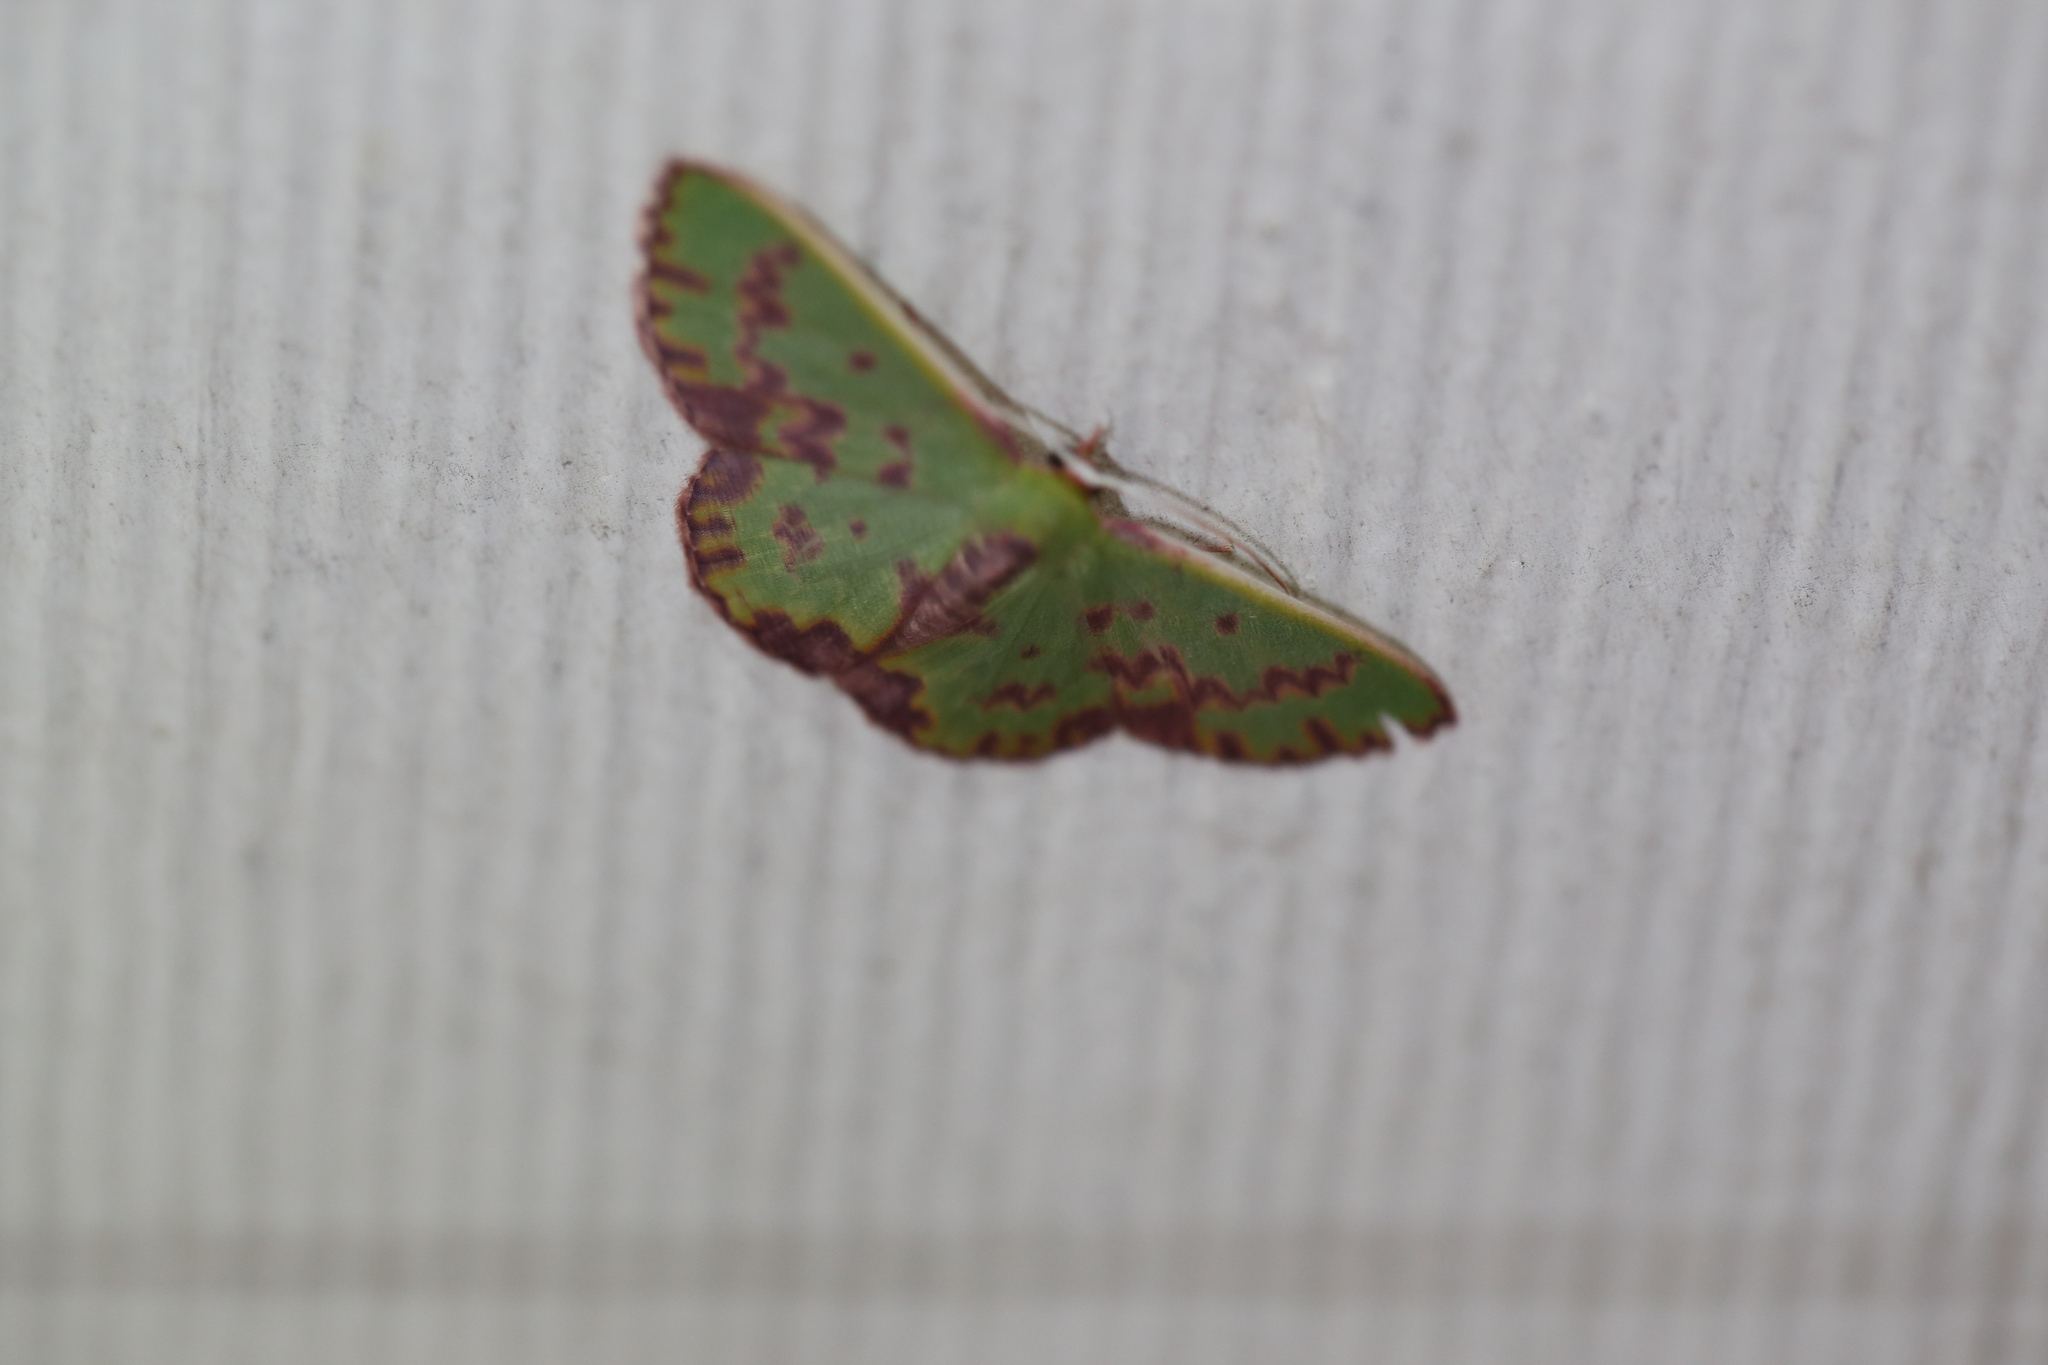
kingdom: Animalia
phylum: Arthropoda
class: Insecta
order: Lepidoptera
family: Geometridae
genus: Prasinocyma
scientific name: Prasinocyma rhodocosma
